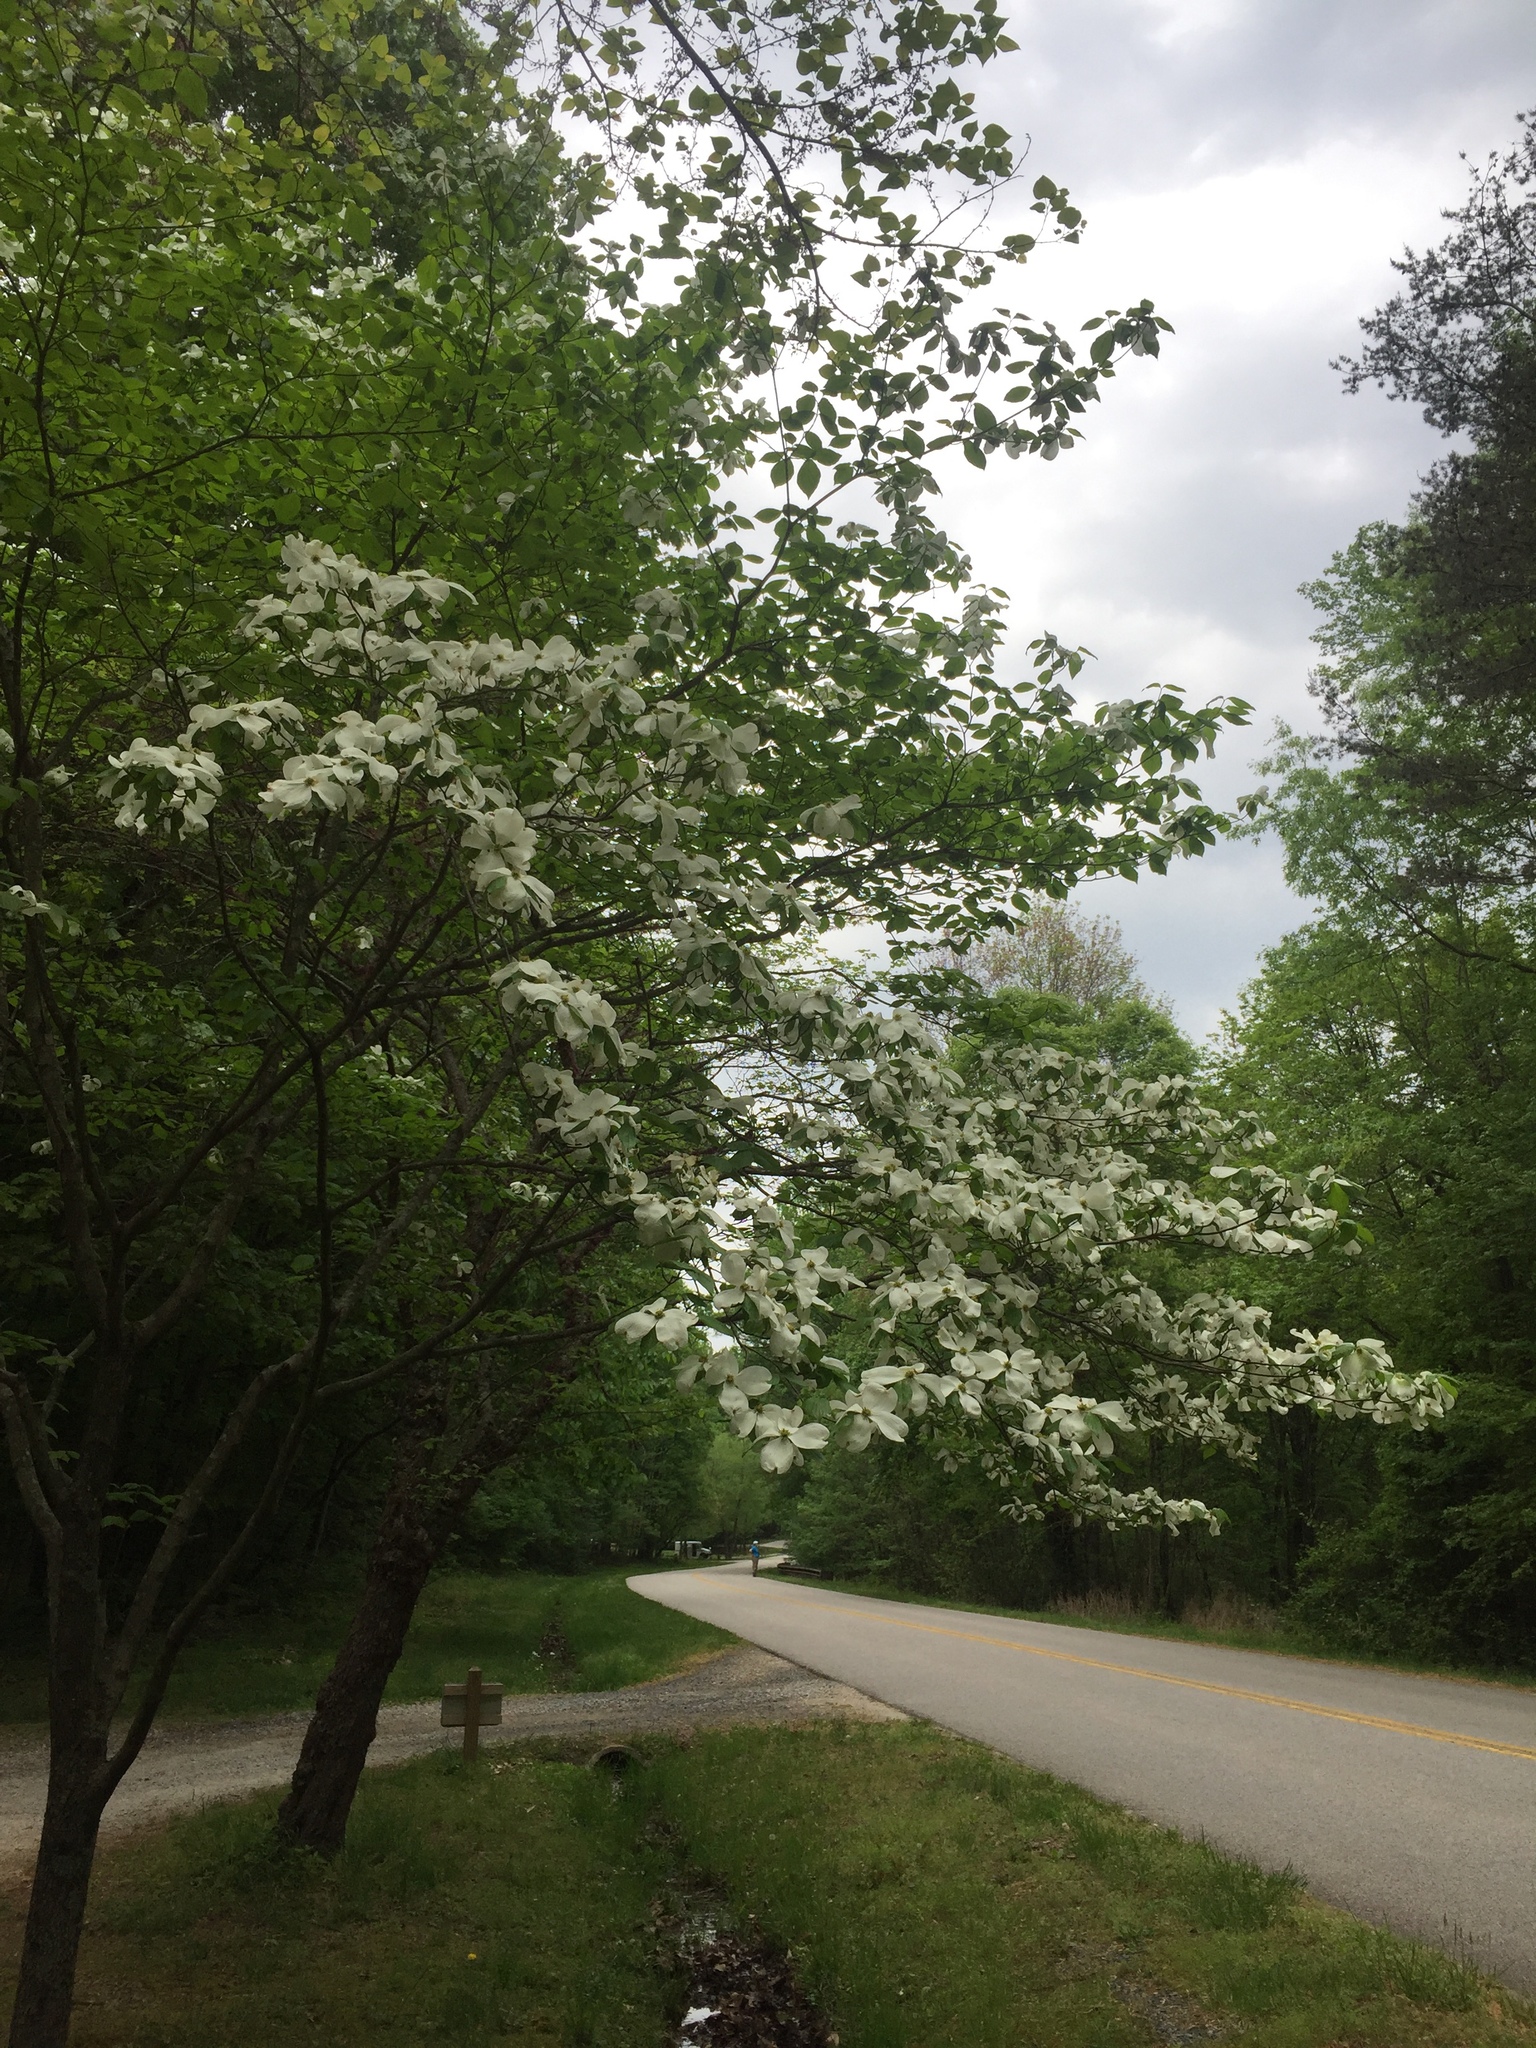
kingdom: Plantae
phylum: Tracheophyta
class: Magnoliopsida
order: Cornales
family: Cornaceae
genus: Cornus
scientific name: Cornus florida
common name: Flowering dogwood
